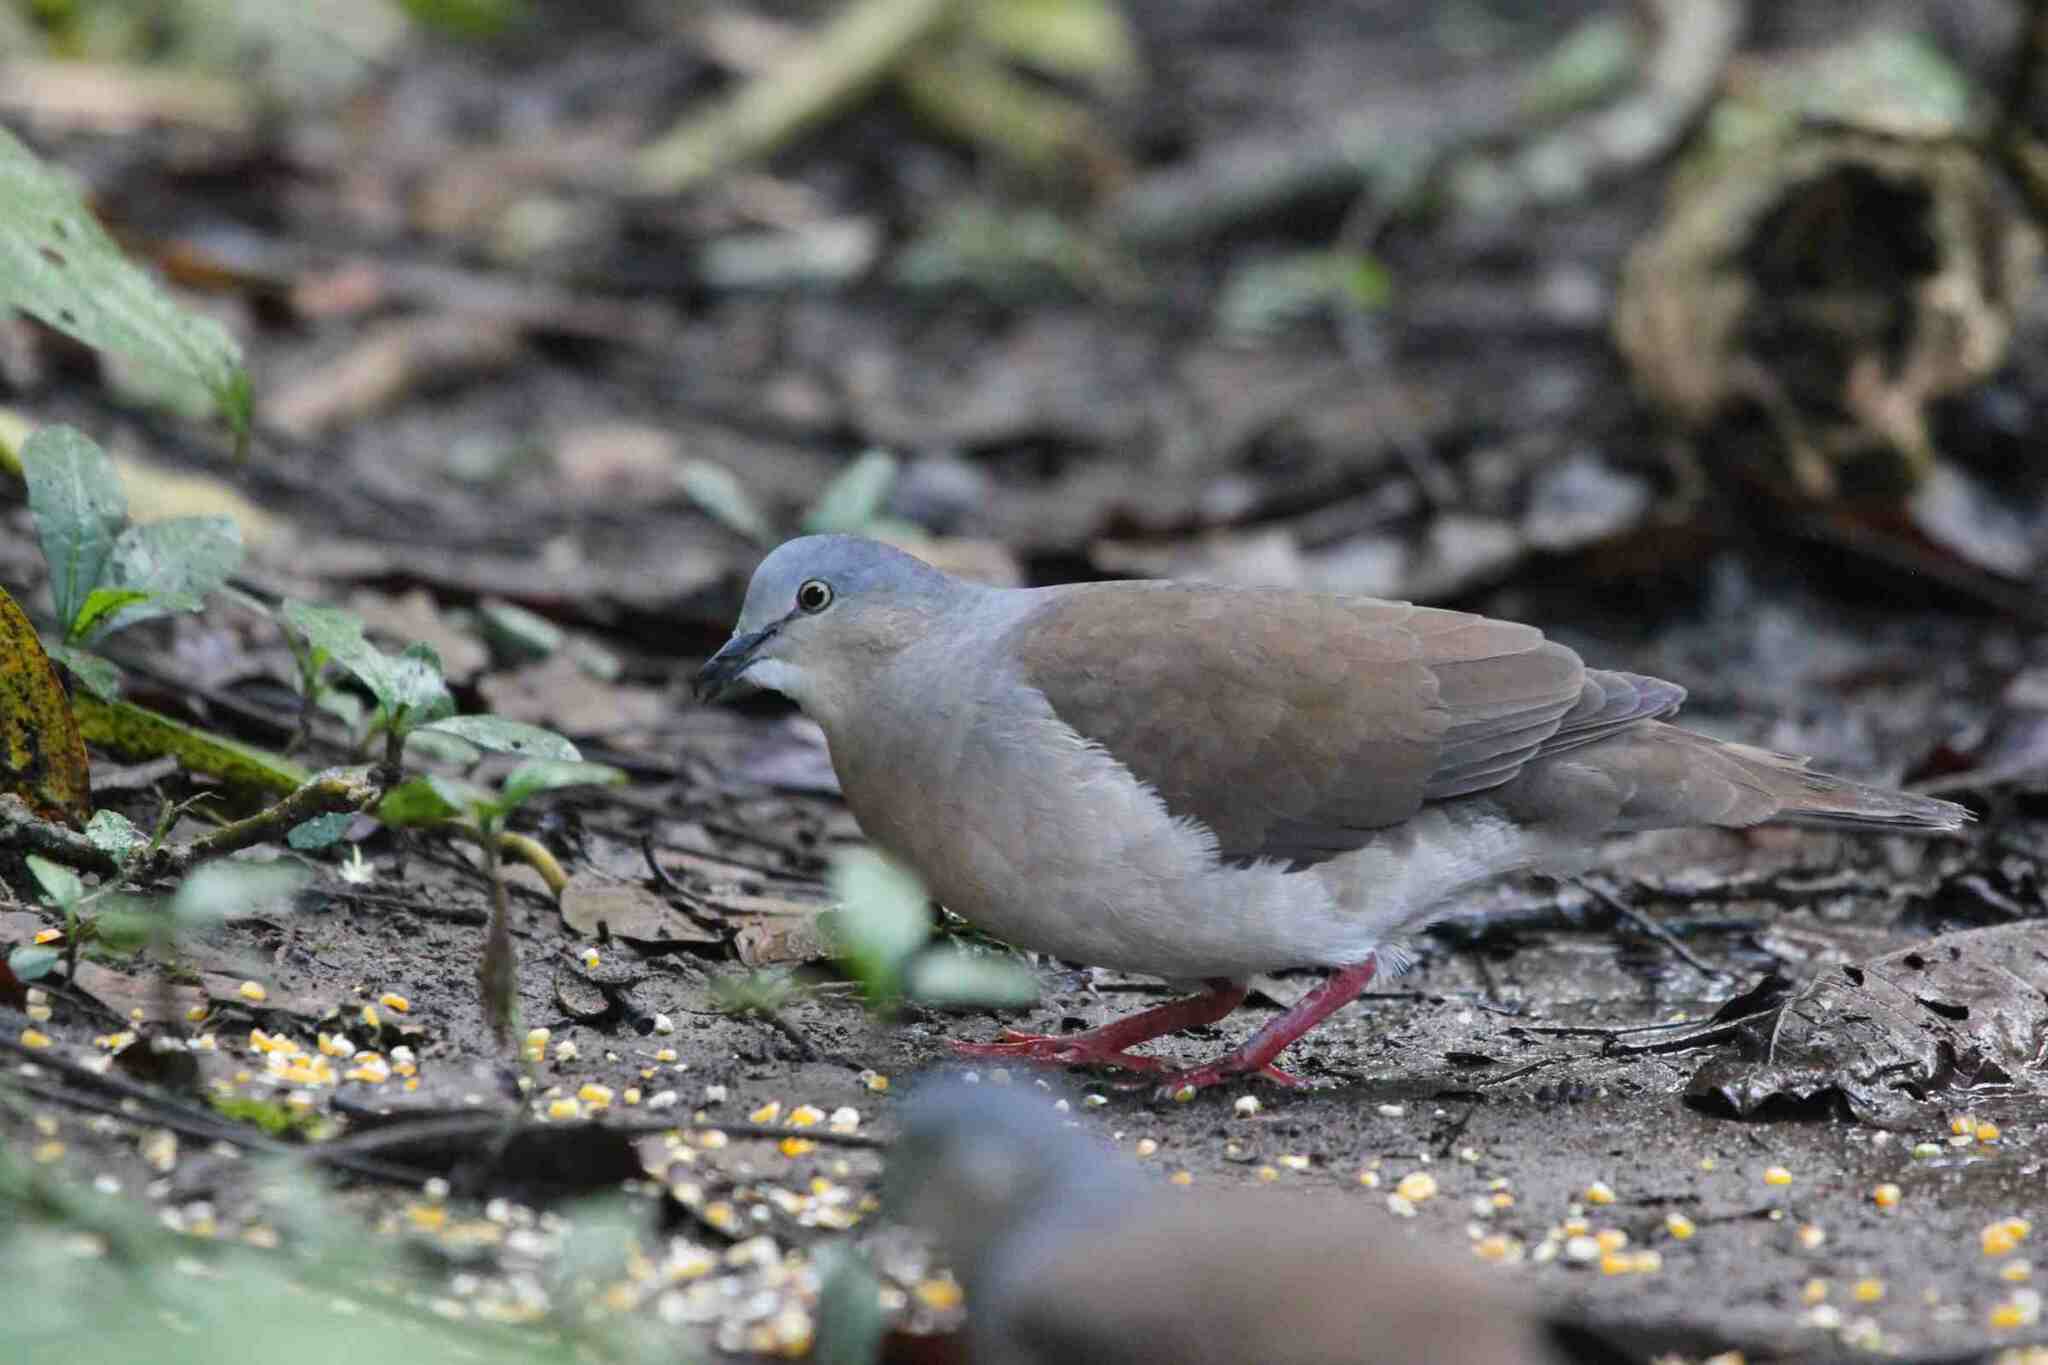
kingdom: Animalia
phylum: Chordata
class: Aves
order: Columbiformes
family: Columbidae
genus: Leptotila
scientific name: Leptotila plumbeiceps
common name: Grey-headed dove
